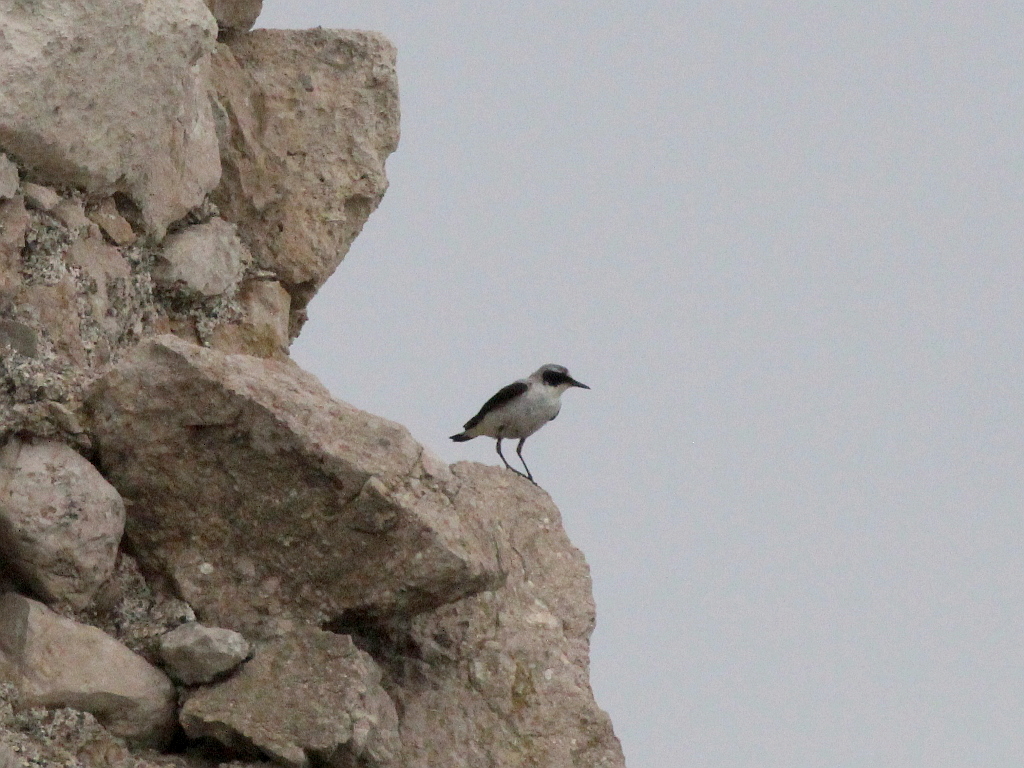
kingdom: Animalia
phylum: Chordata
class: Aves
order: Passeriformes
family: Muscicapidae
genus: Oenanthe
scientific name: Oenanthe oenanthe
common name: Northern wheatear
